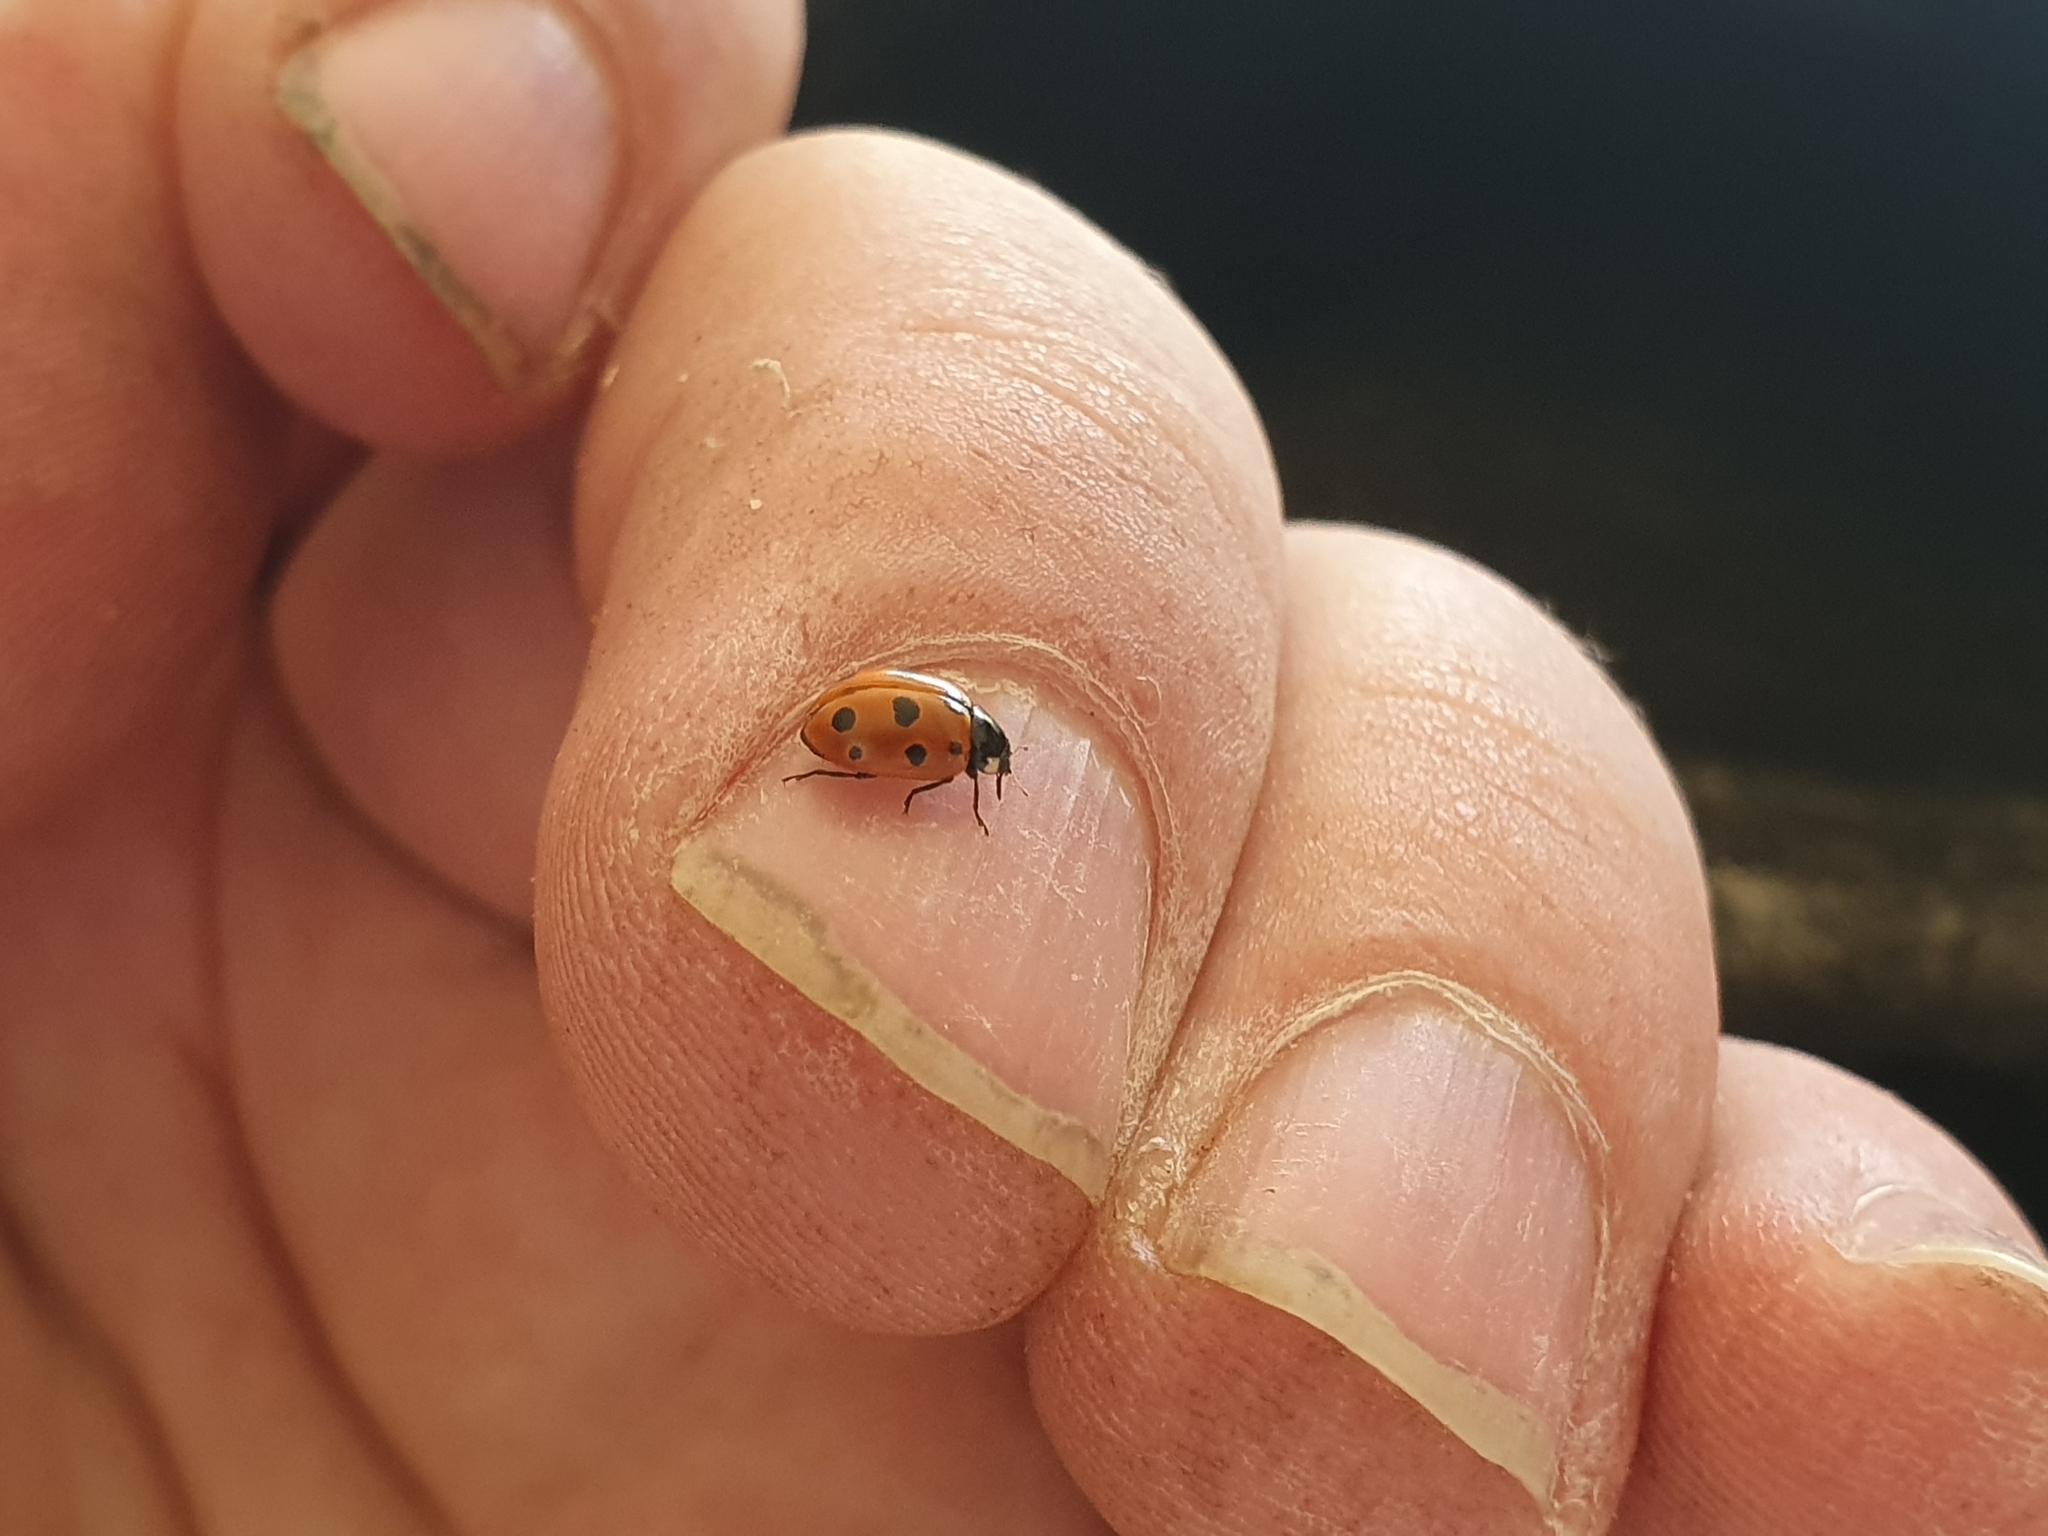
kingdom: Animalia
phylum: Arthropoda
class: Insecta
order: Coleoptera
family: Coccinellidae
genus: Coccinella
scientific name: Coccinella undecimpunctata
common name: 11-spot ladybird
